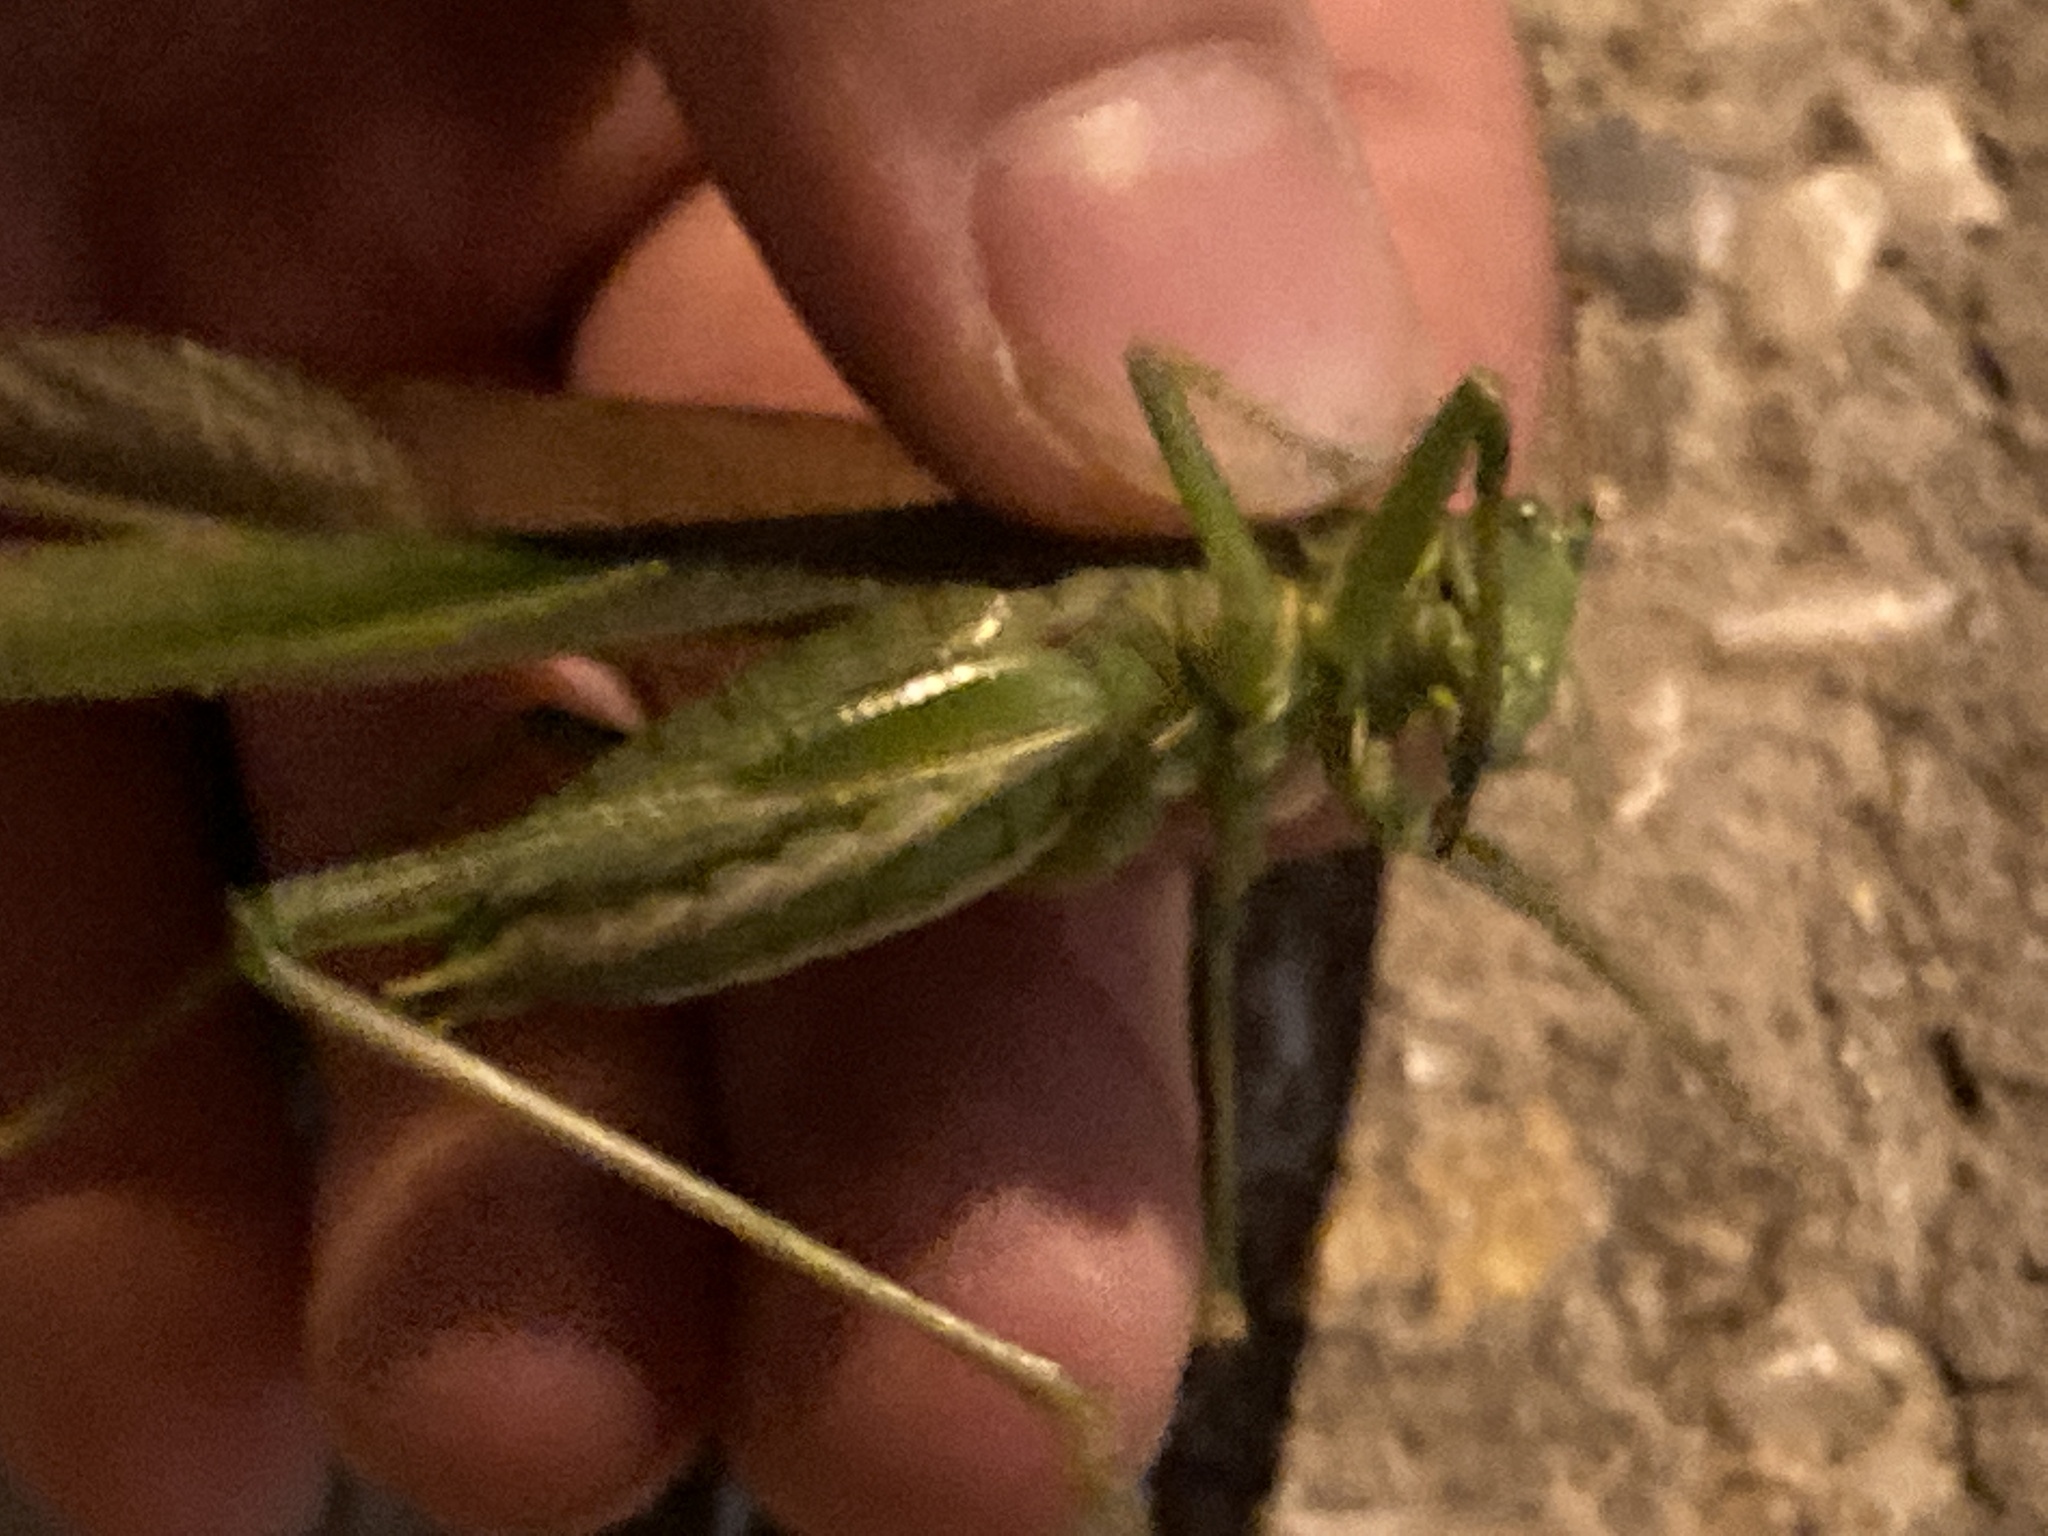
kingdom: Animalia
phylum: Arthropoda
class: Insecta
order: Orthoptera
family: Tettigoniidae
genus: Tettigonia
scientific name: Tettigonia viridissima
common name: Great green bush-cricket
